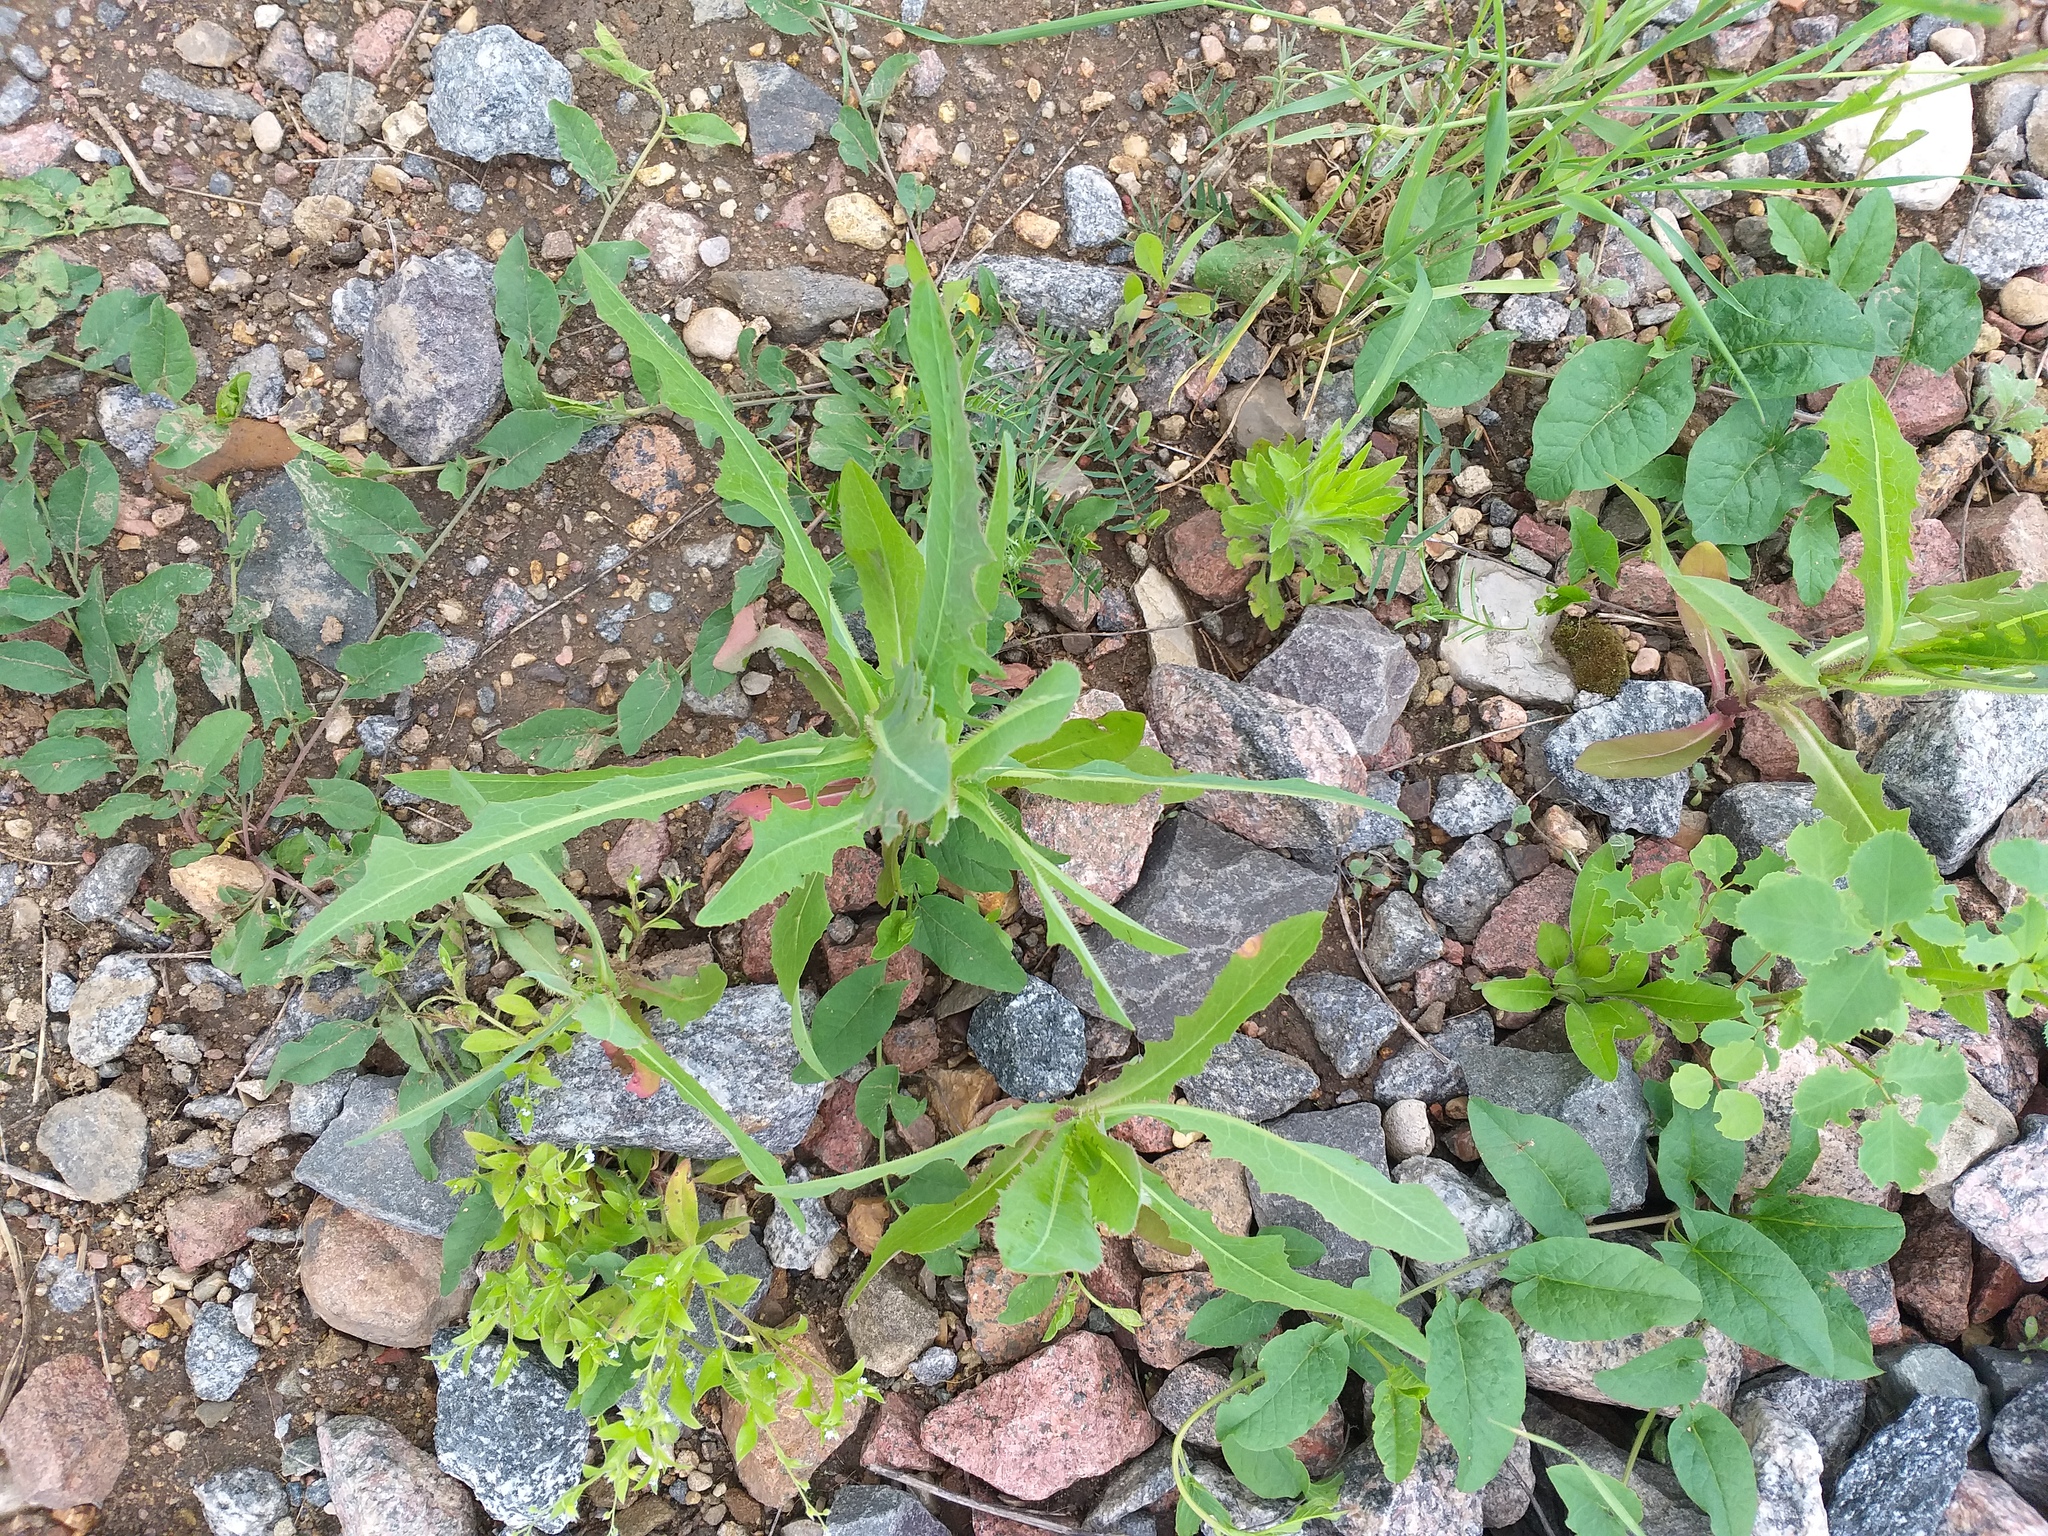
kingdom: Plantae
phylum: Tracheophyta
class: Magnoliopsida
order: Asterales
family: Asteraceae
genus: Lactuca
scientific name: Lactuca serriola
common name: Prickly lettuce
